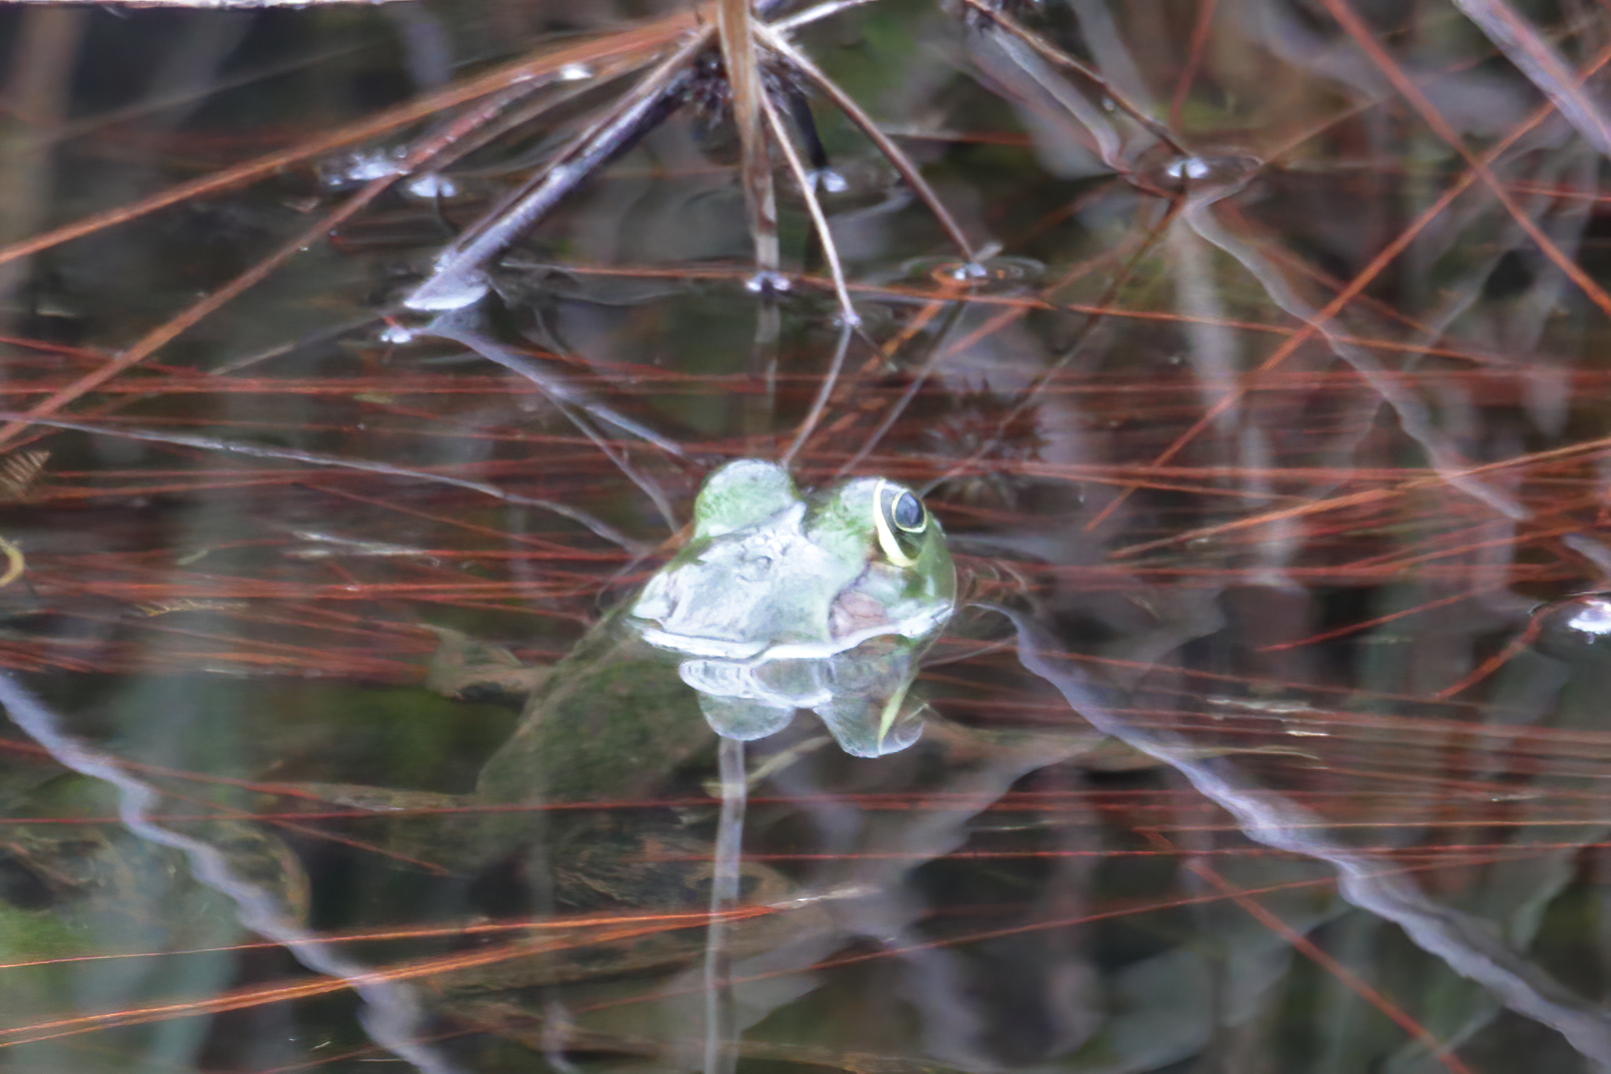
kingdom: Animalia
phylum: Chordata
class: Amphibia
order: Anura
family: Ranidae
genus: Lithobates
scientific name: Lithobates grylio
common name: Pig frog
